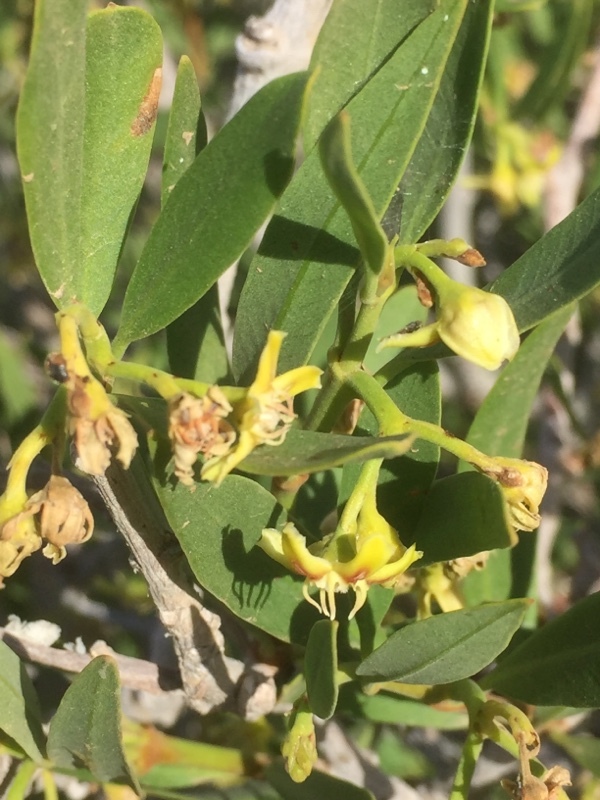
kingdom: Plantae
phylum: Tracheophyta
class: Magnoliopsida
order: Gentianales
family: Apocynaceae
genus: Periploca
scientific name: Periploca laevigata
